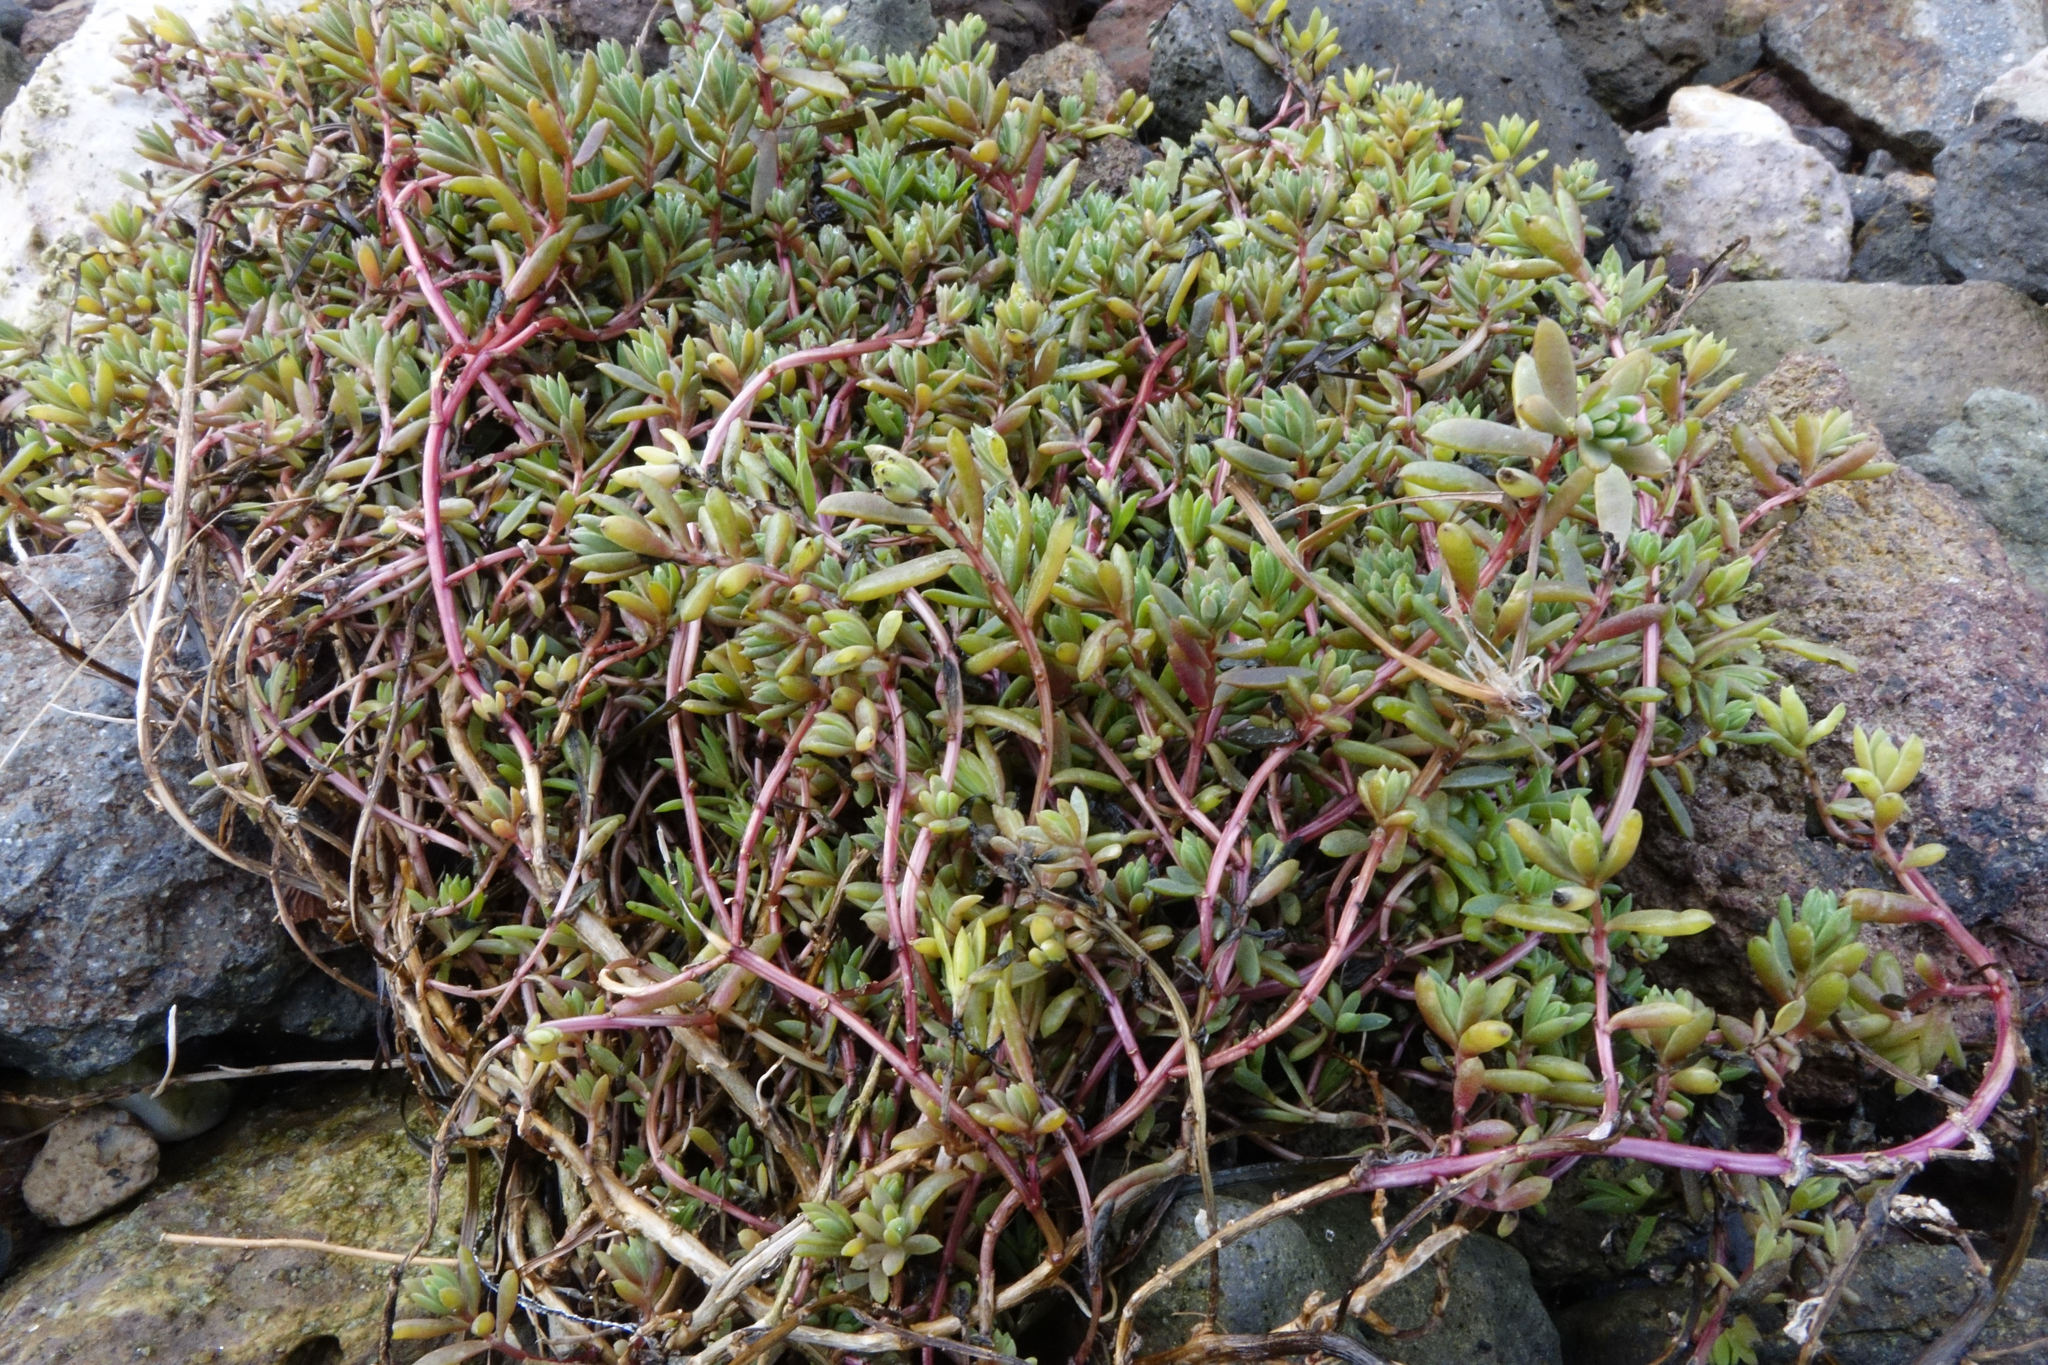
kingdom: Plantae
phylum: Tracheophyta
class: Magnoliopsida
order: Caryophyllales
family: Amaranthaceae
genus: Suaeda
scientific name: Suaeda novae-zelandiae
